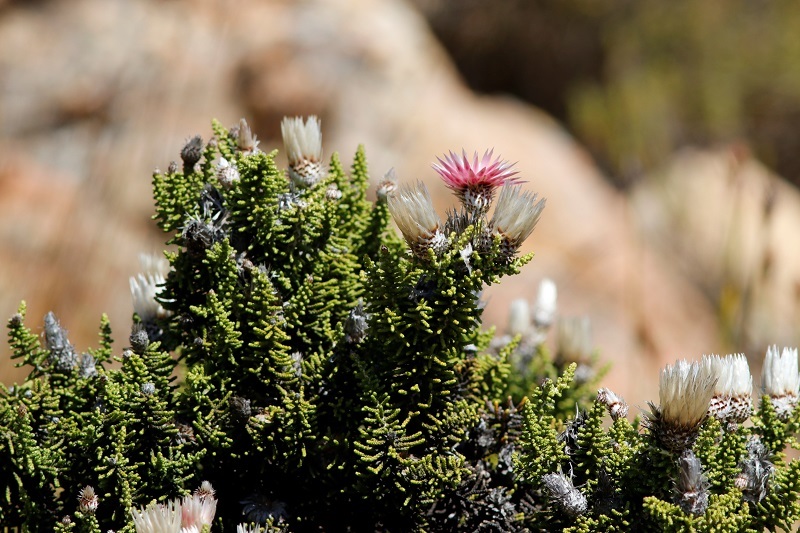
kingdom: Plantae
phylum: Tracheophyta
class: Magnoliopsida
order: Asterales
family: Asteraceae
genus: Phaenocoma
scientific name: Phaenocoma prolifera
